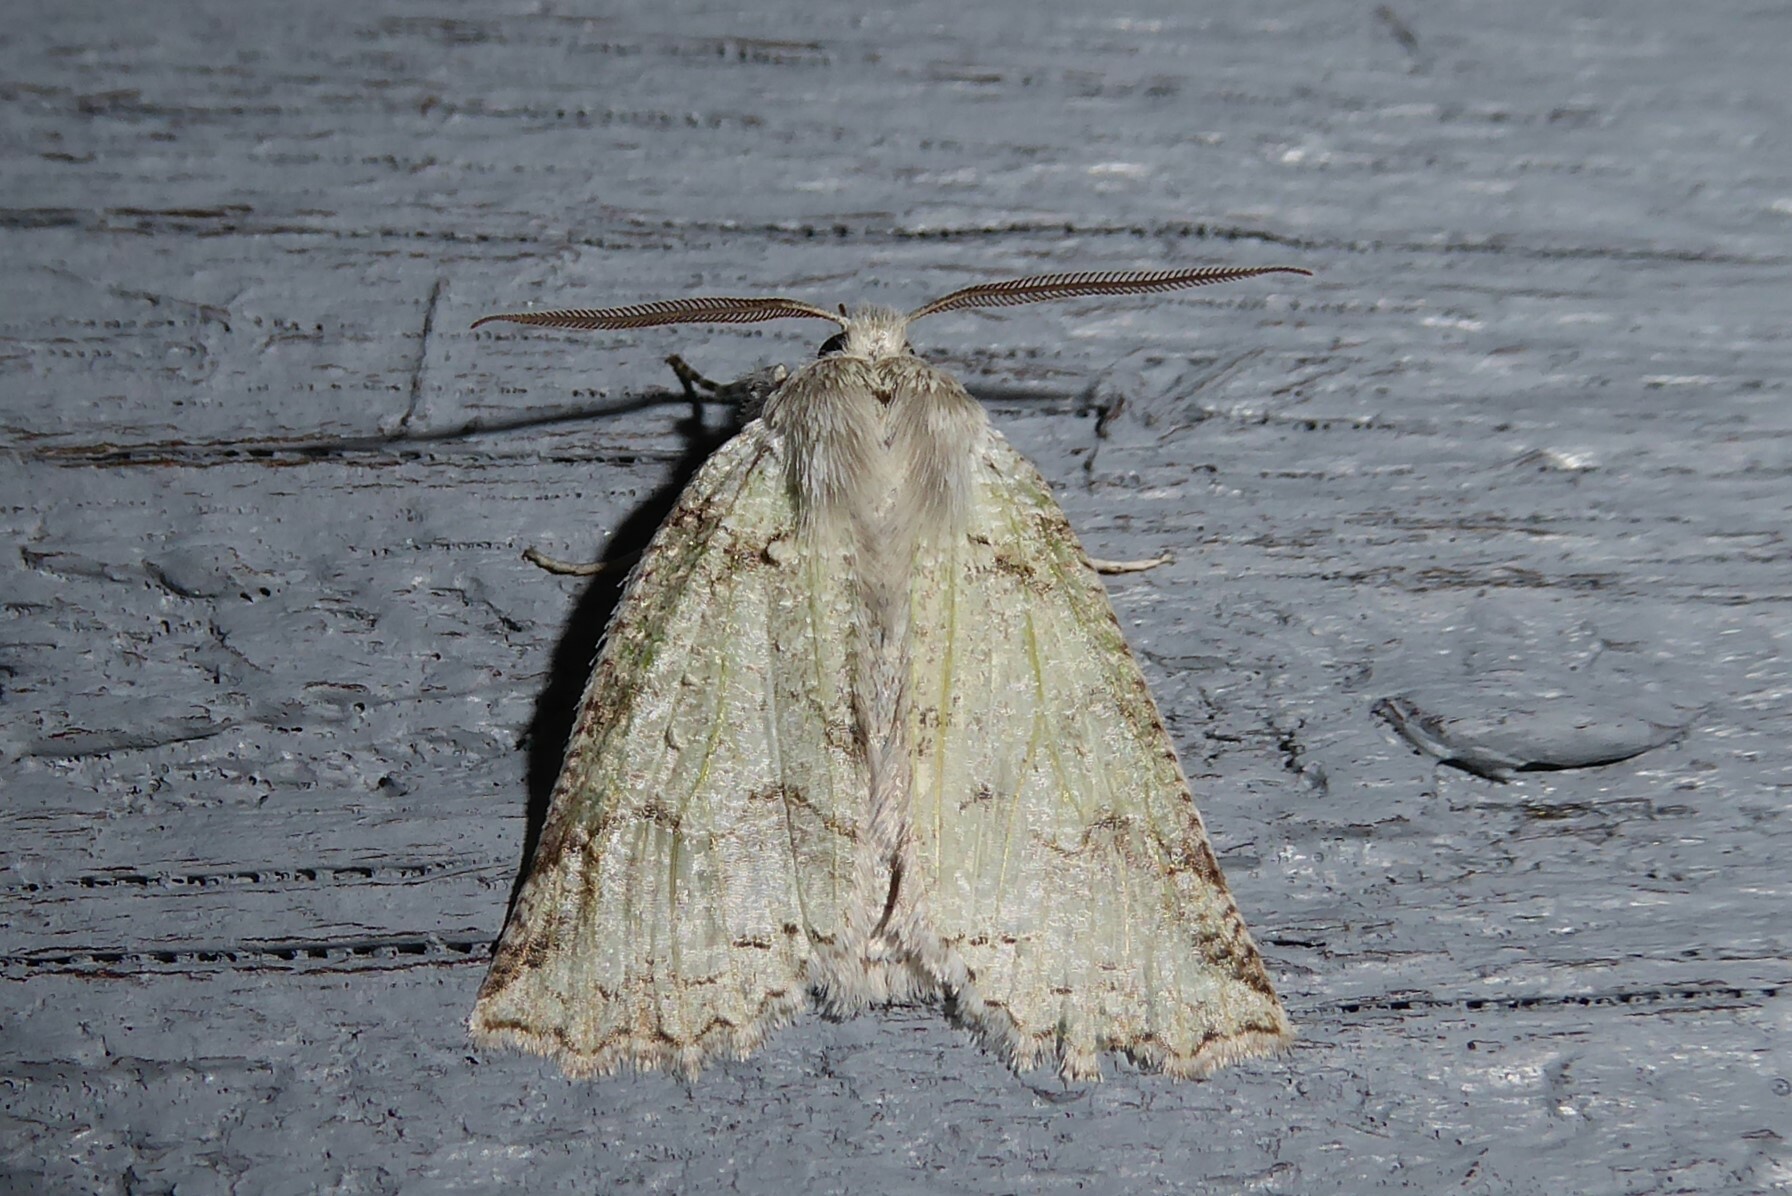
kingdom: Animalia
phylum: Arthropoda
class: Insecta
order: Lepidoptera
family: Geometridae
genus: Declana
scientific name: Declana floccosa
